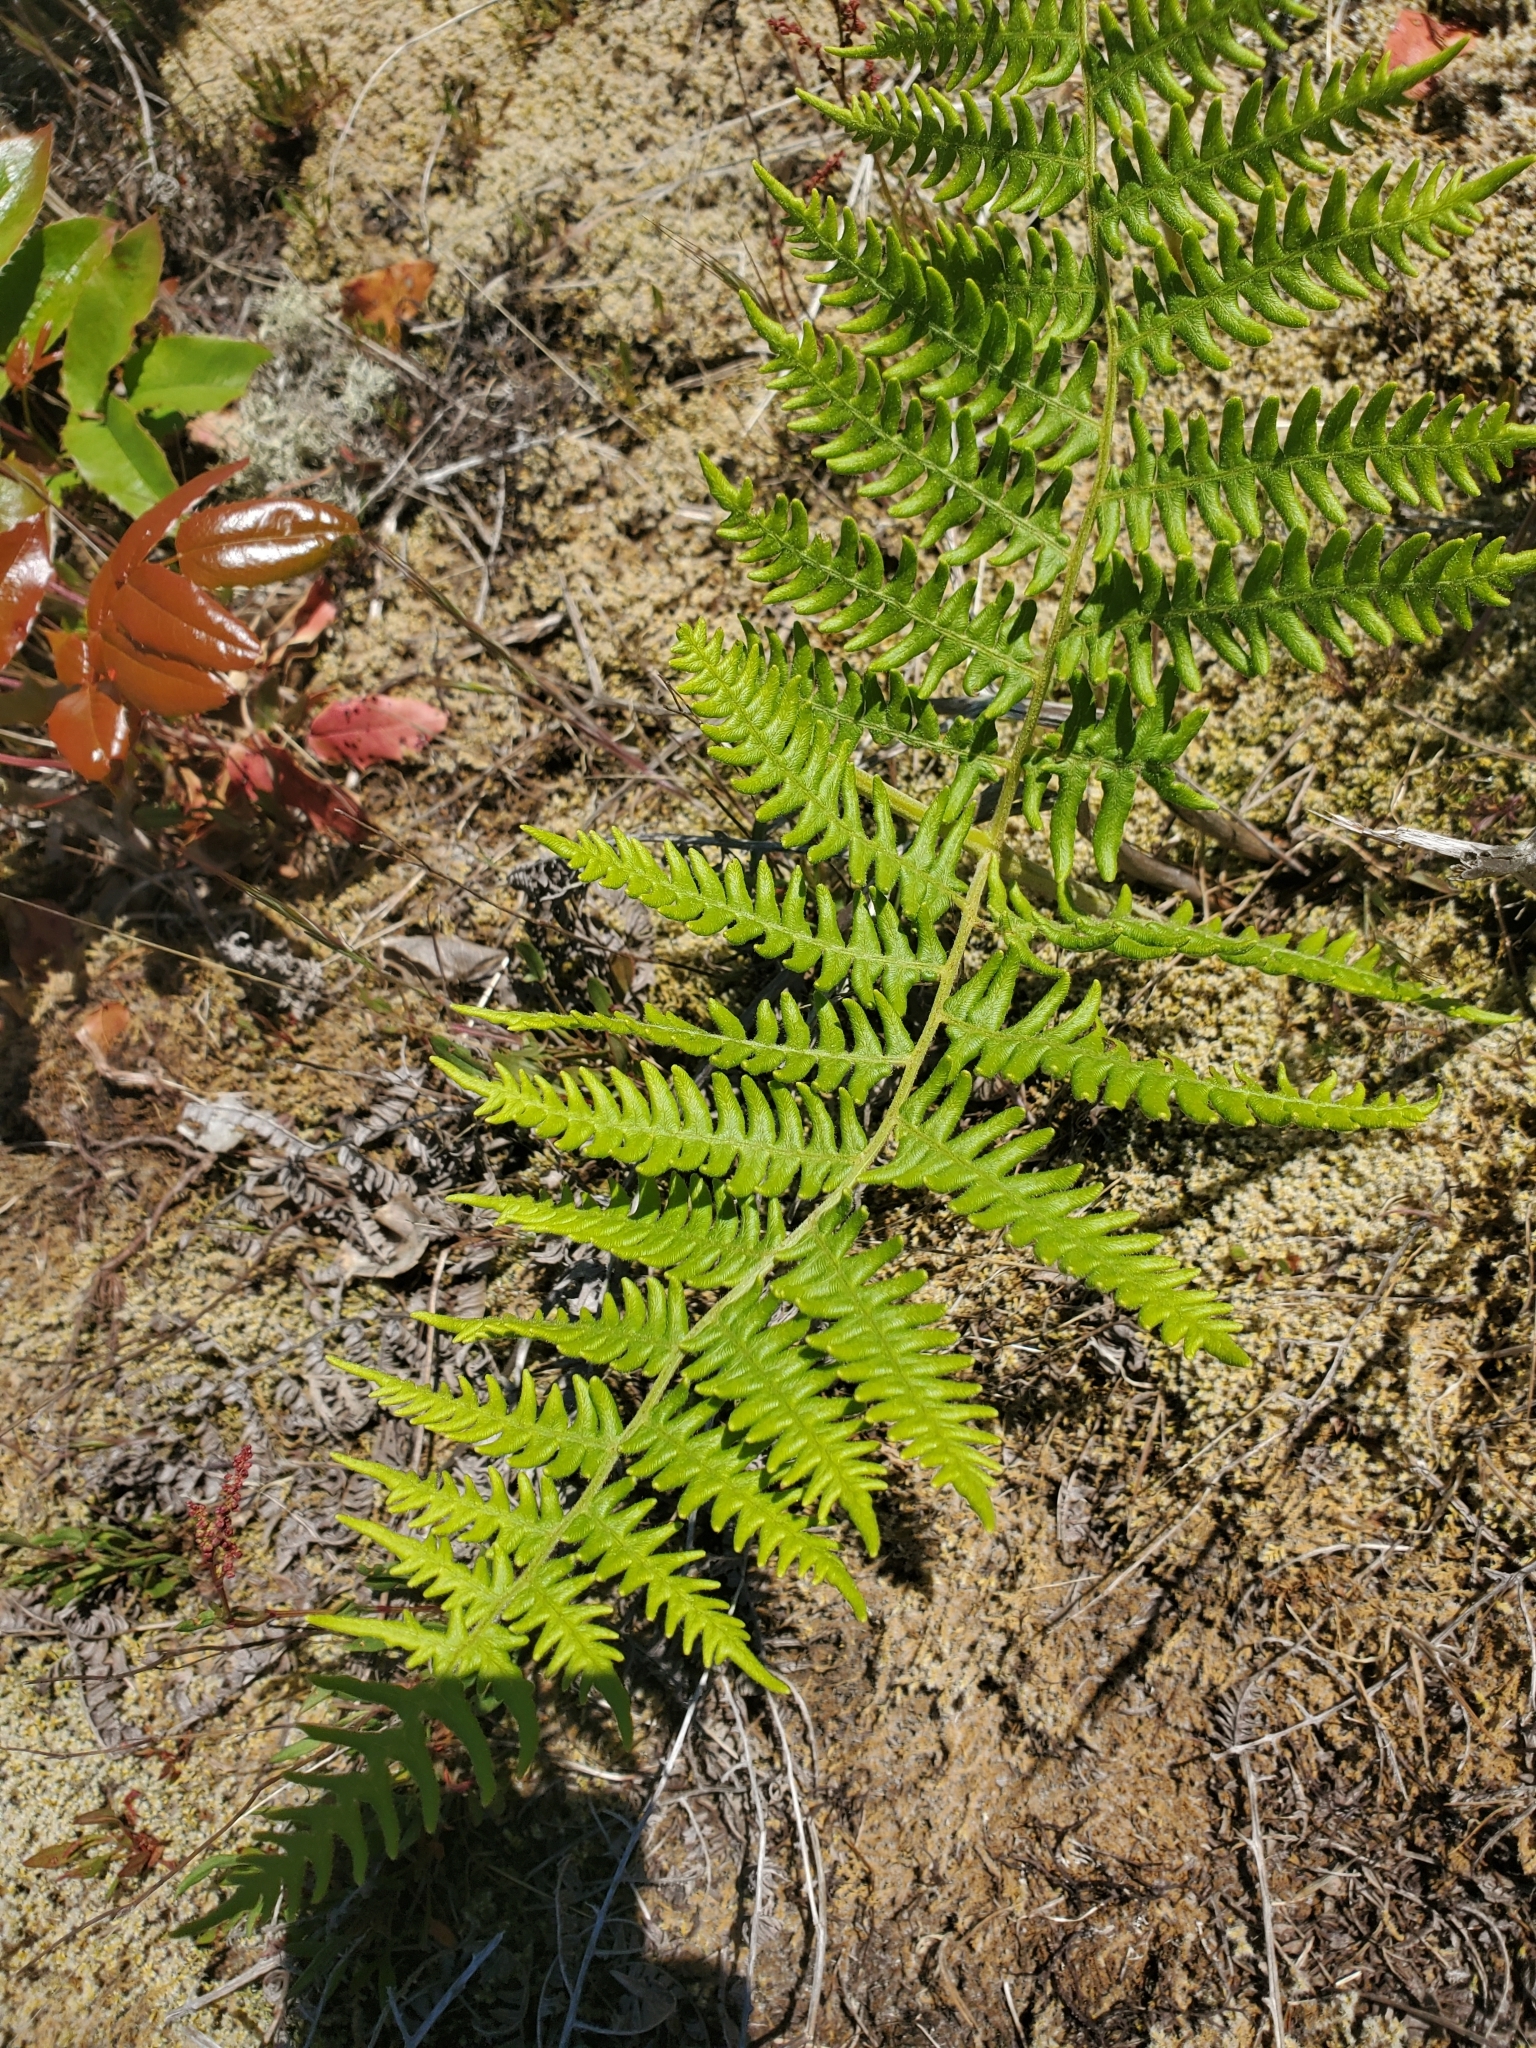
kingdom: Plantae
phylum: Tracheophyta
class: Polypodiopsida
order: Polypodiales
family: Dennstaedtiaceae
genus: Pteridium
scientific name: Pteridium aquilinum
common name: Bracken
